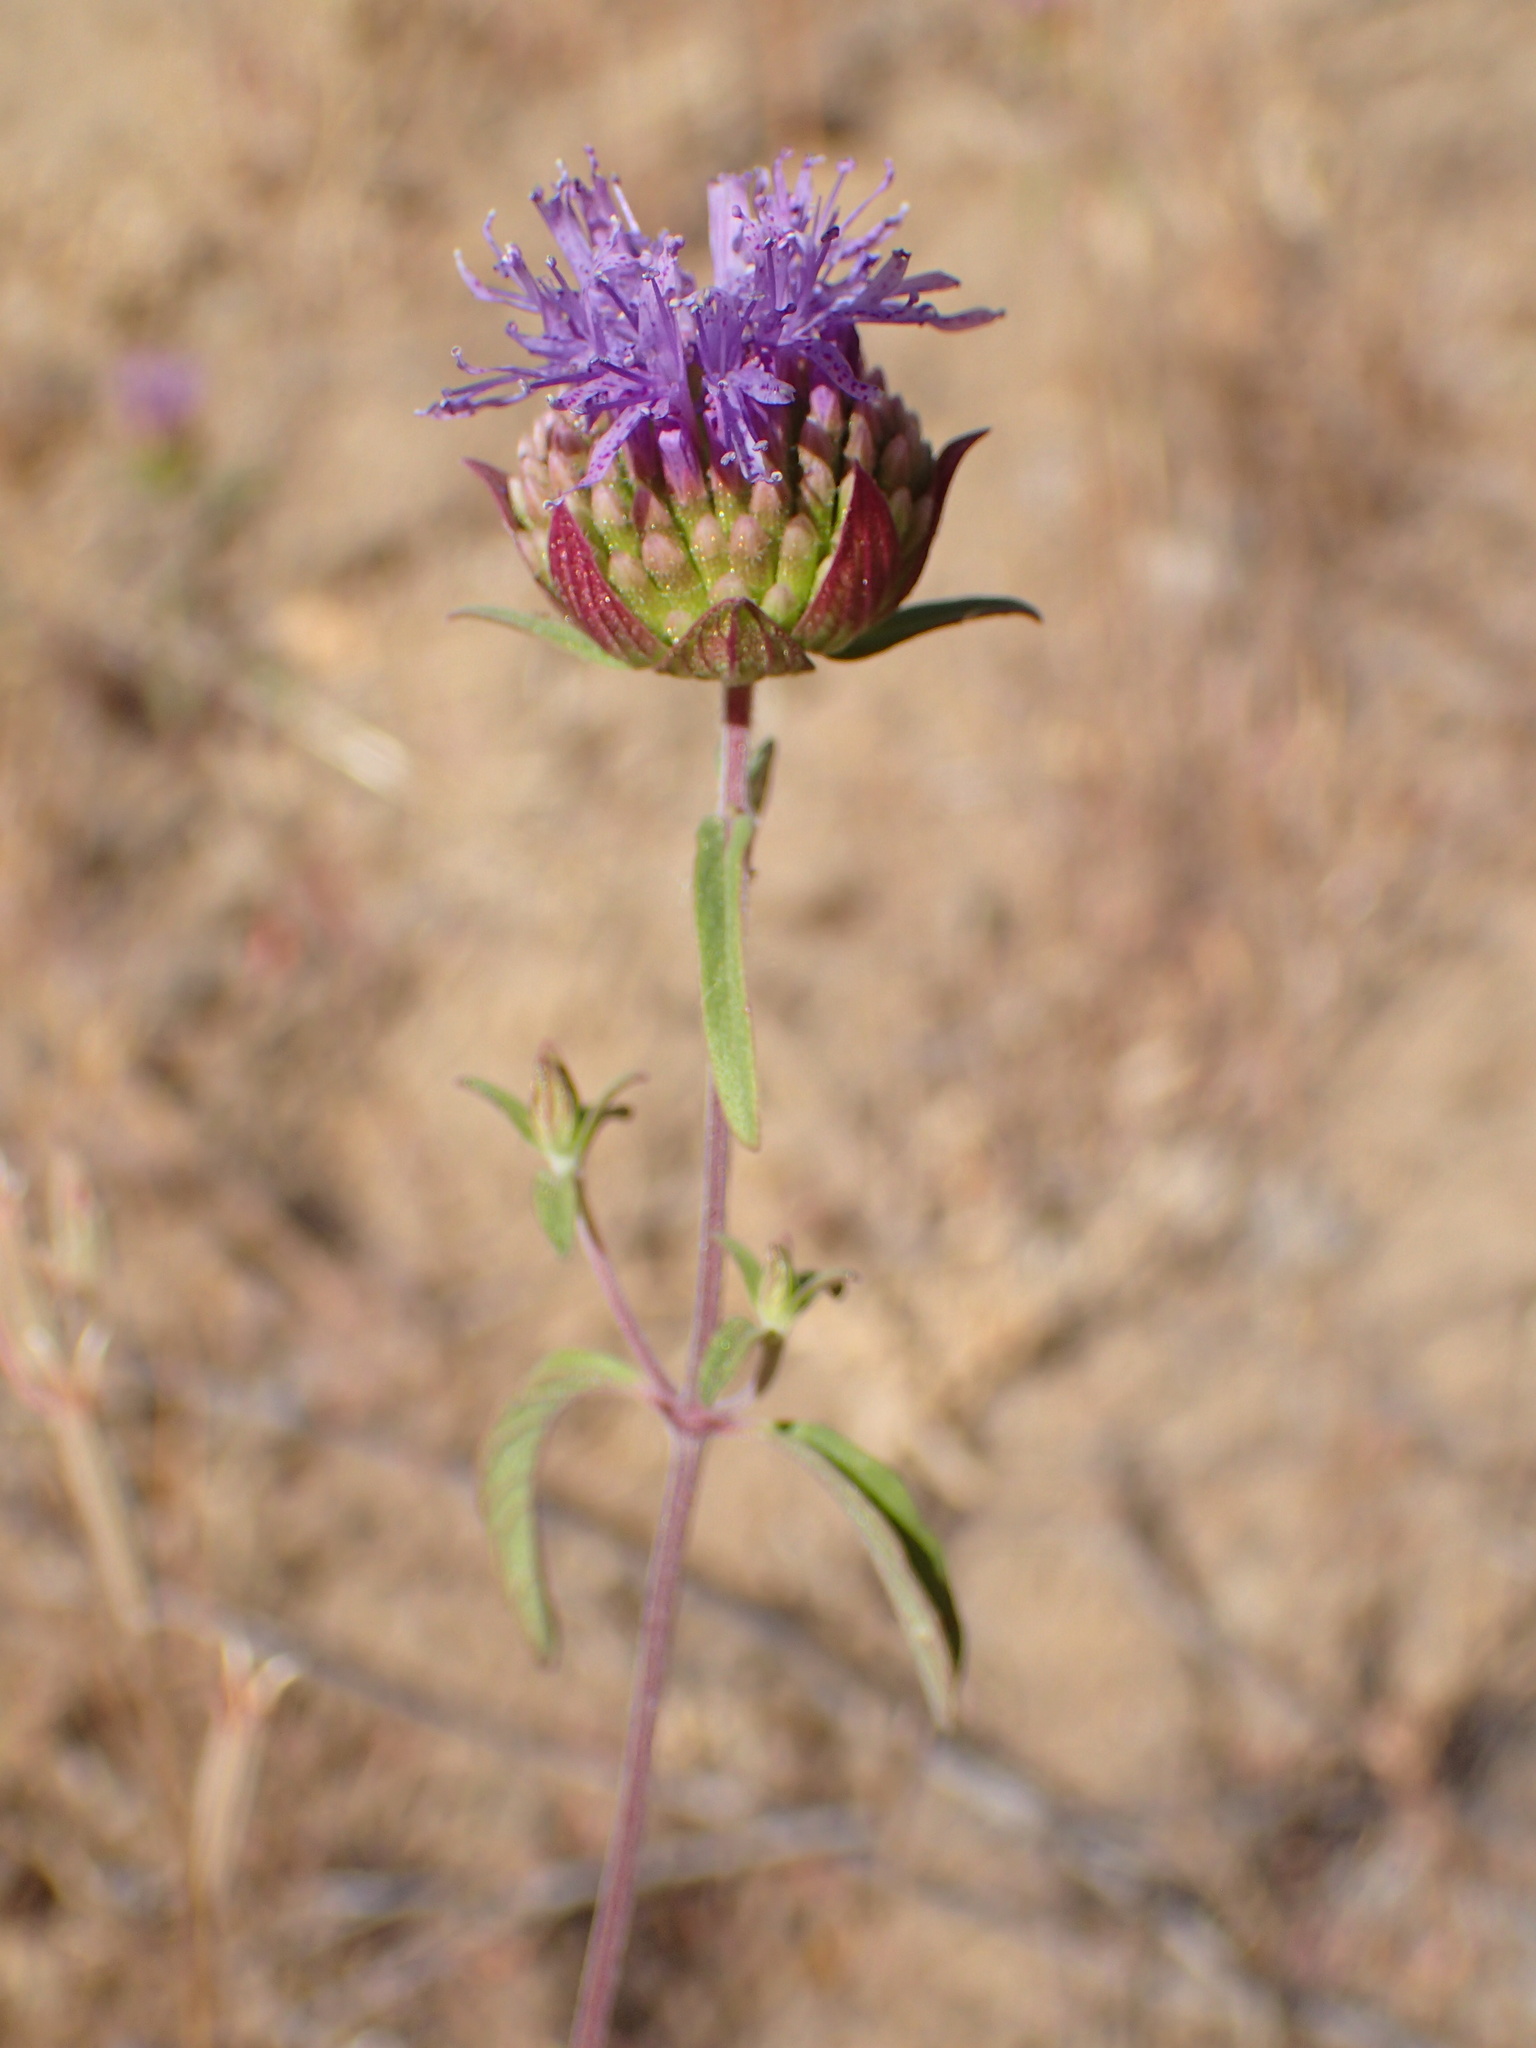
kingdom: Plantae
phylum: Tracheophyta
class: Magnoliopsida
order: Lamiales
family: Lamiaceae
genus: Monardella
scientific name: Monardella breweri
